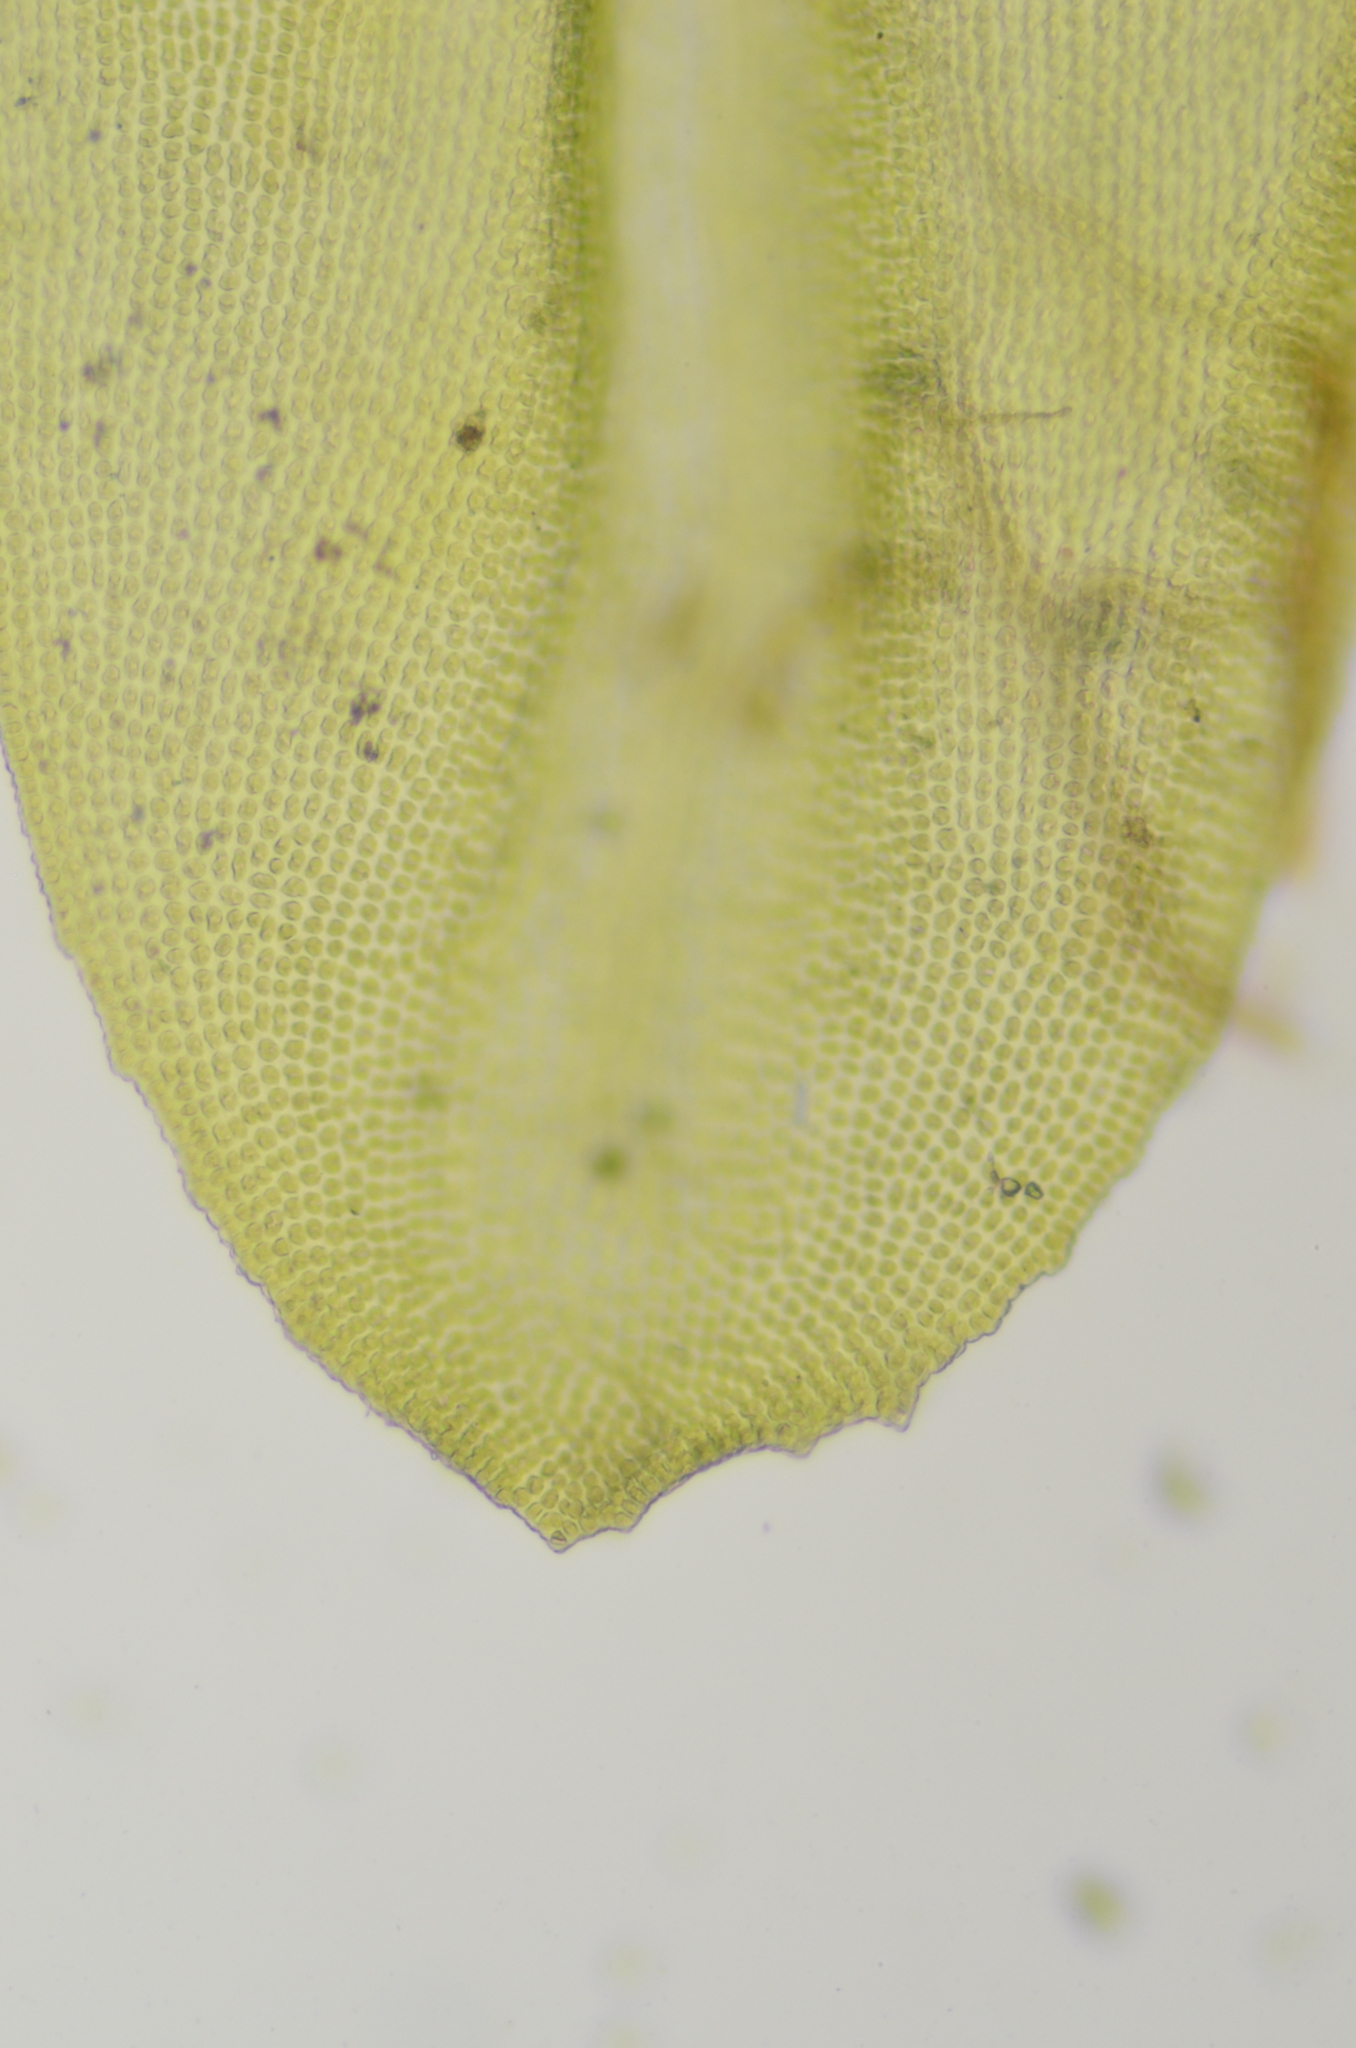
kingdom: Plantae
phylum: Bryophyta
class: Bryopsida
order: Grimmiales
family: Grimmiaceae
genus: Codriophorus
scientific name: Codriophorus acicularis
